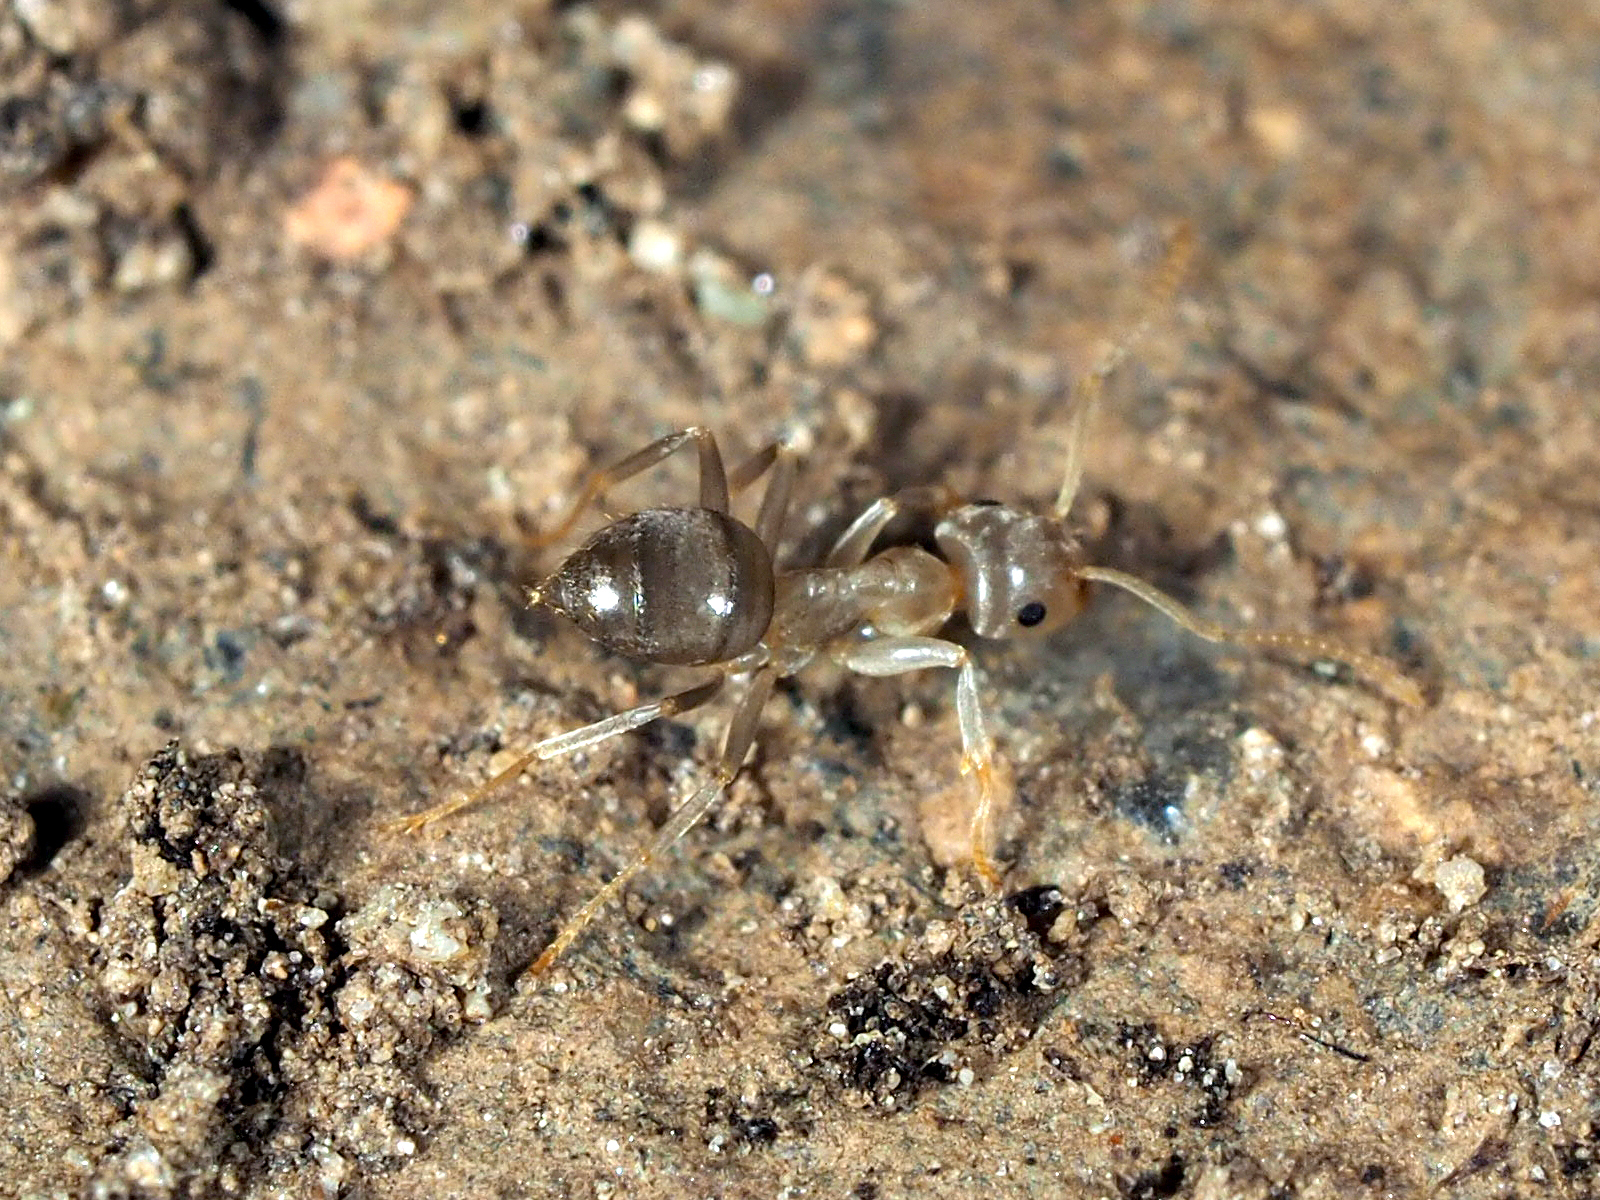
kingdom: Animalia
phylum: Arthropoda
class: Insecta
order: Hymenoptera
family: Formicidae
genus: Lasius
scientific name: Lasius
